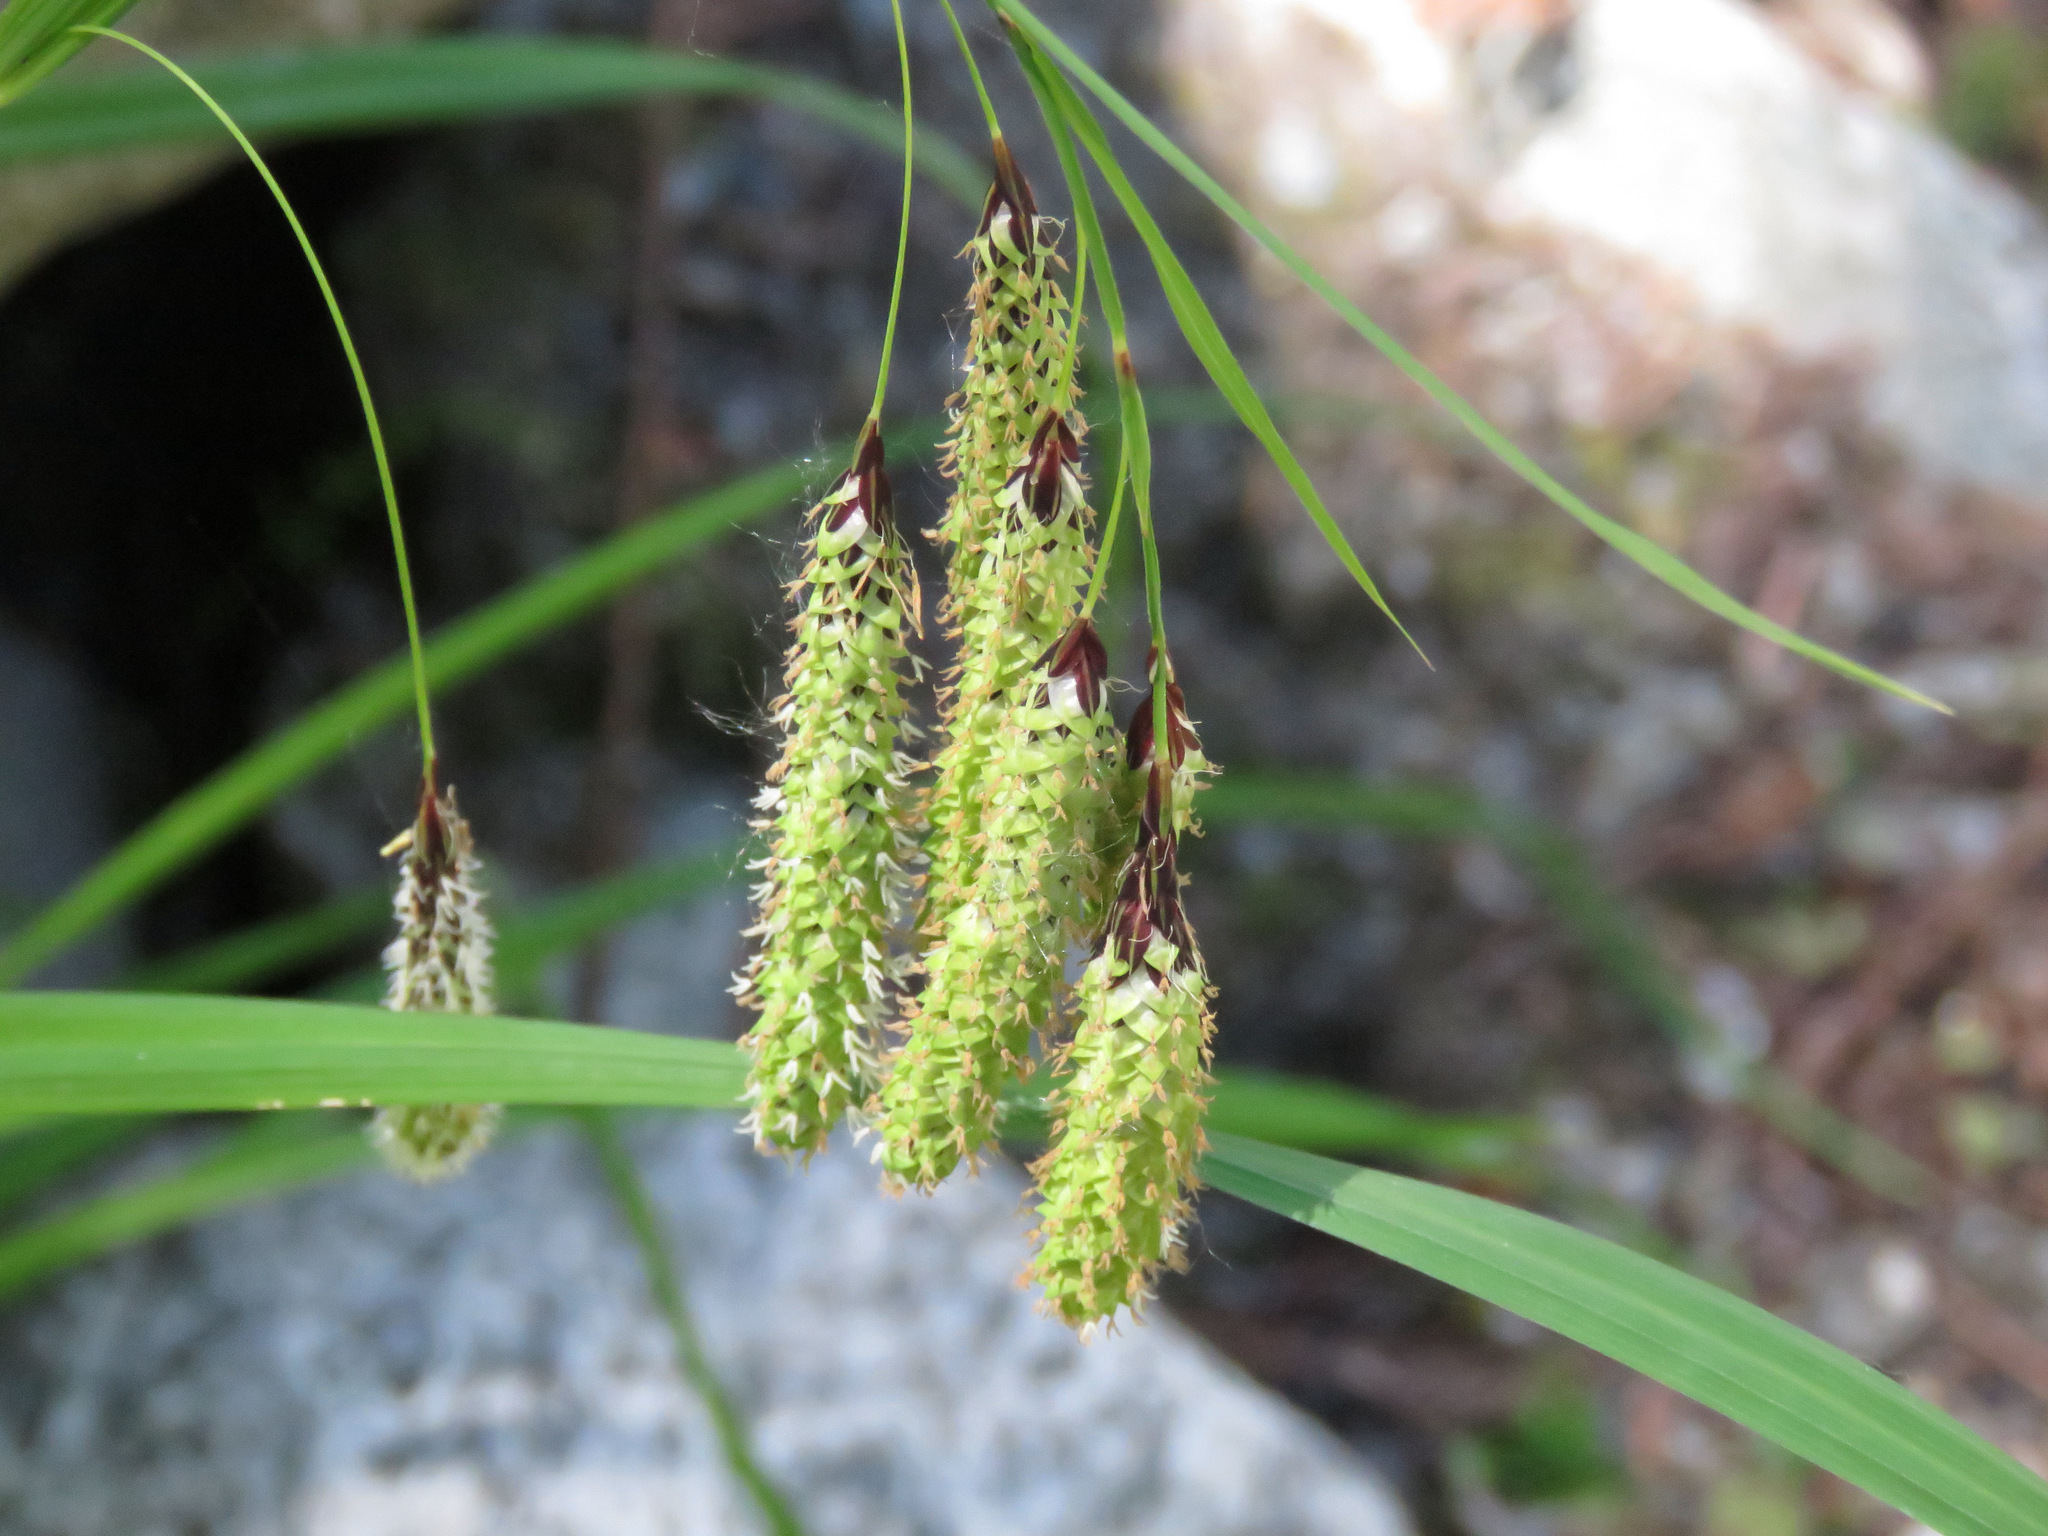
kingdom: Plantae
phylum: Tracheophyta
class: Liliopsida
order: Poales
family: Cyperaceae
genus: Carex
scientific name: Carex mertensii
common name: Mertens' sedge
